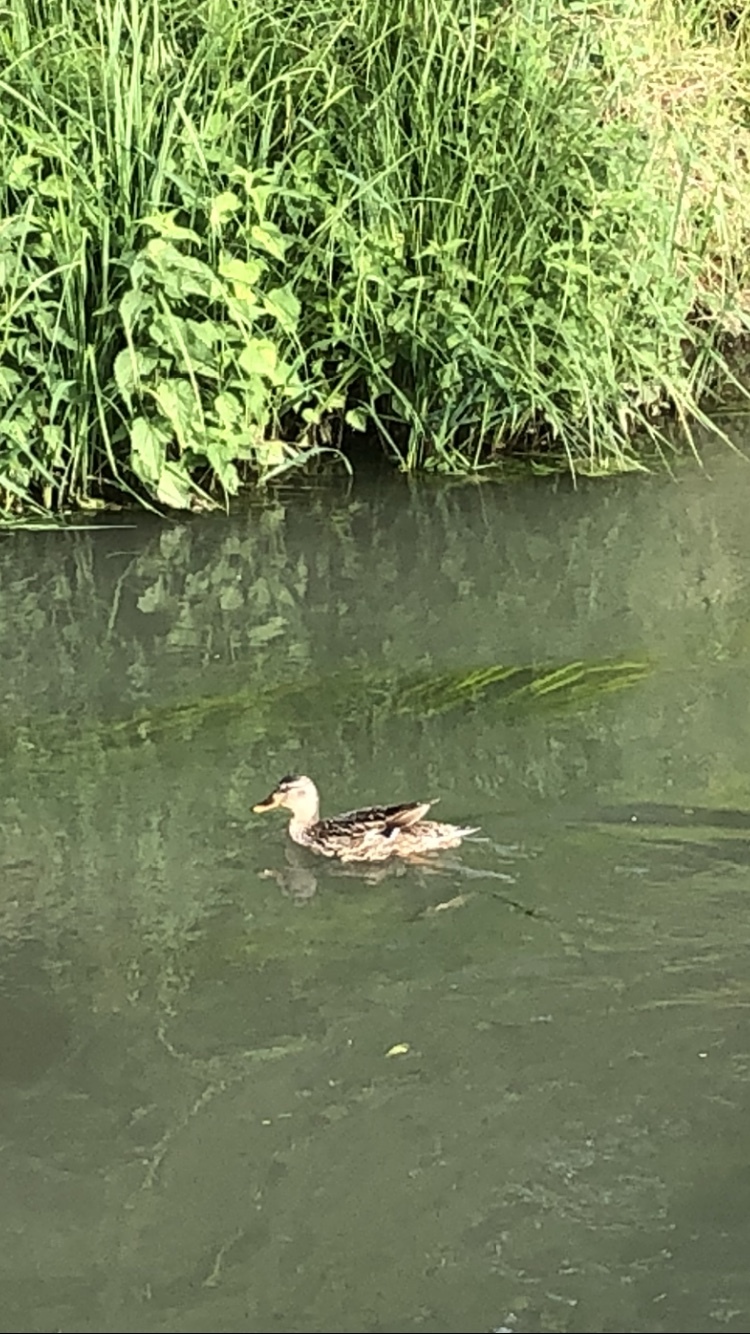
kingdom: Animalia
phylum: Chordata
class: Aves
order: Anseriformes
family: Anatidae
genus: Anas
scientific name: Anas platyrhynchos
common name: Mallard
